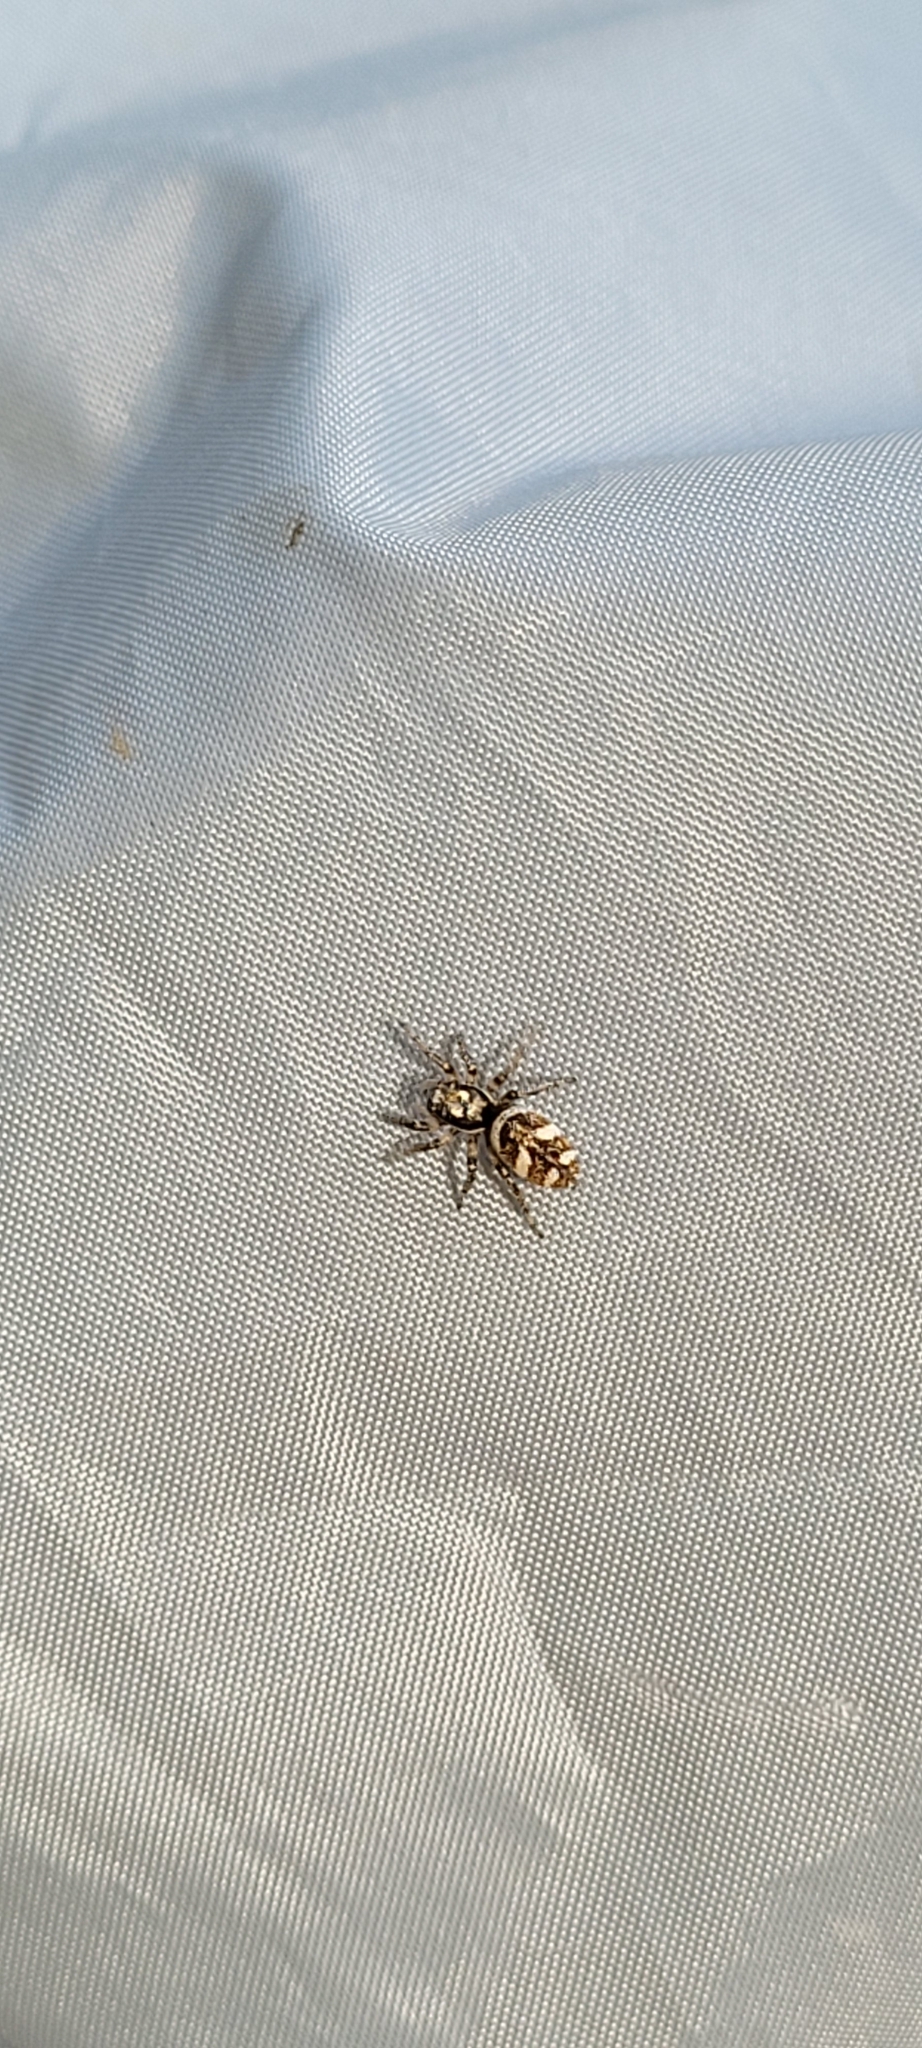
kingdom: Animalia
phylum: Arthropoda
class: Arachnida
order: Araneae
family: Salticidae
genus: Salticus
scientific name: Salticus scenicus
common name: Zebra jumper
